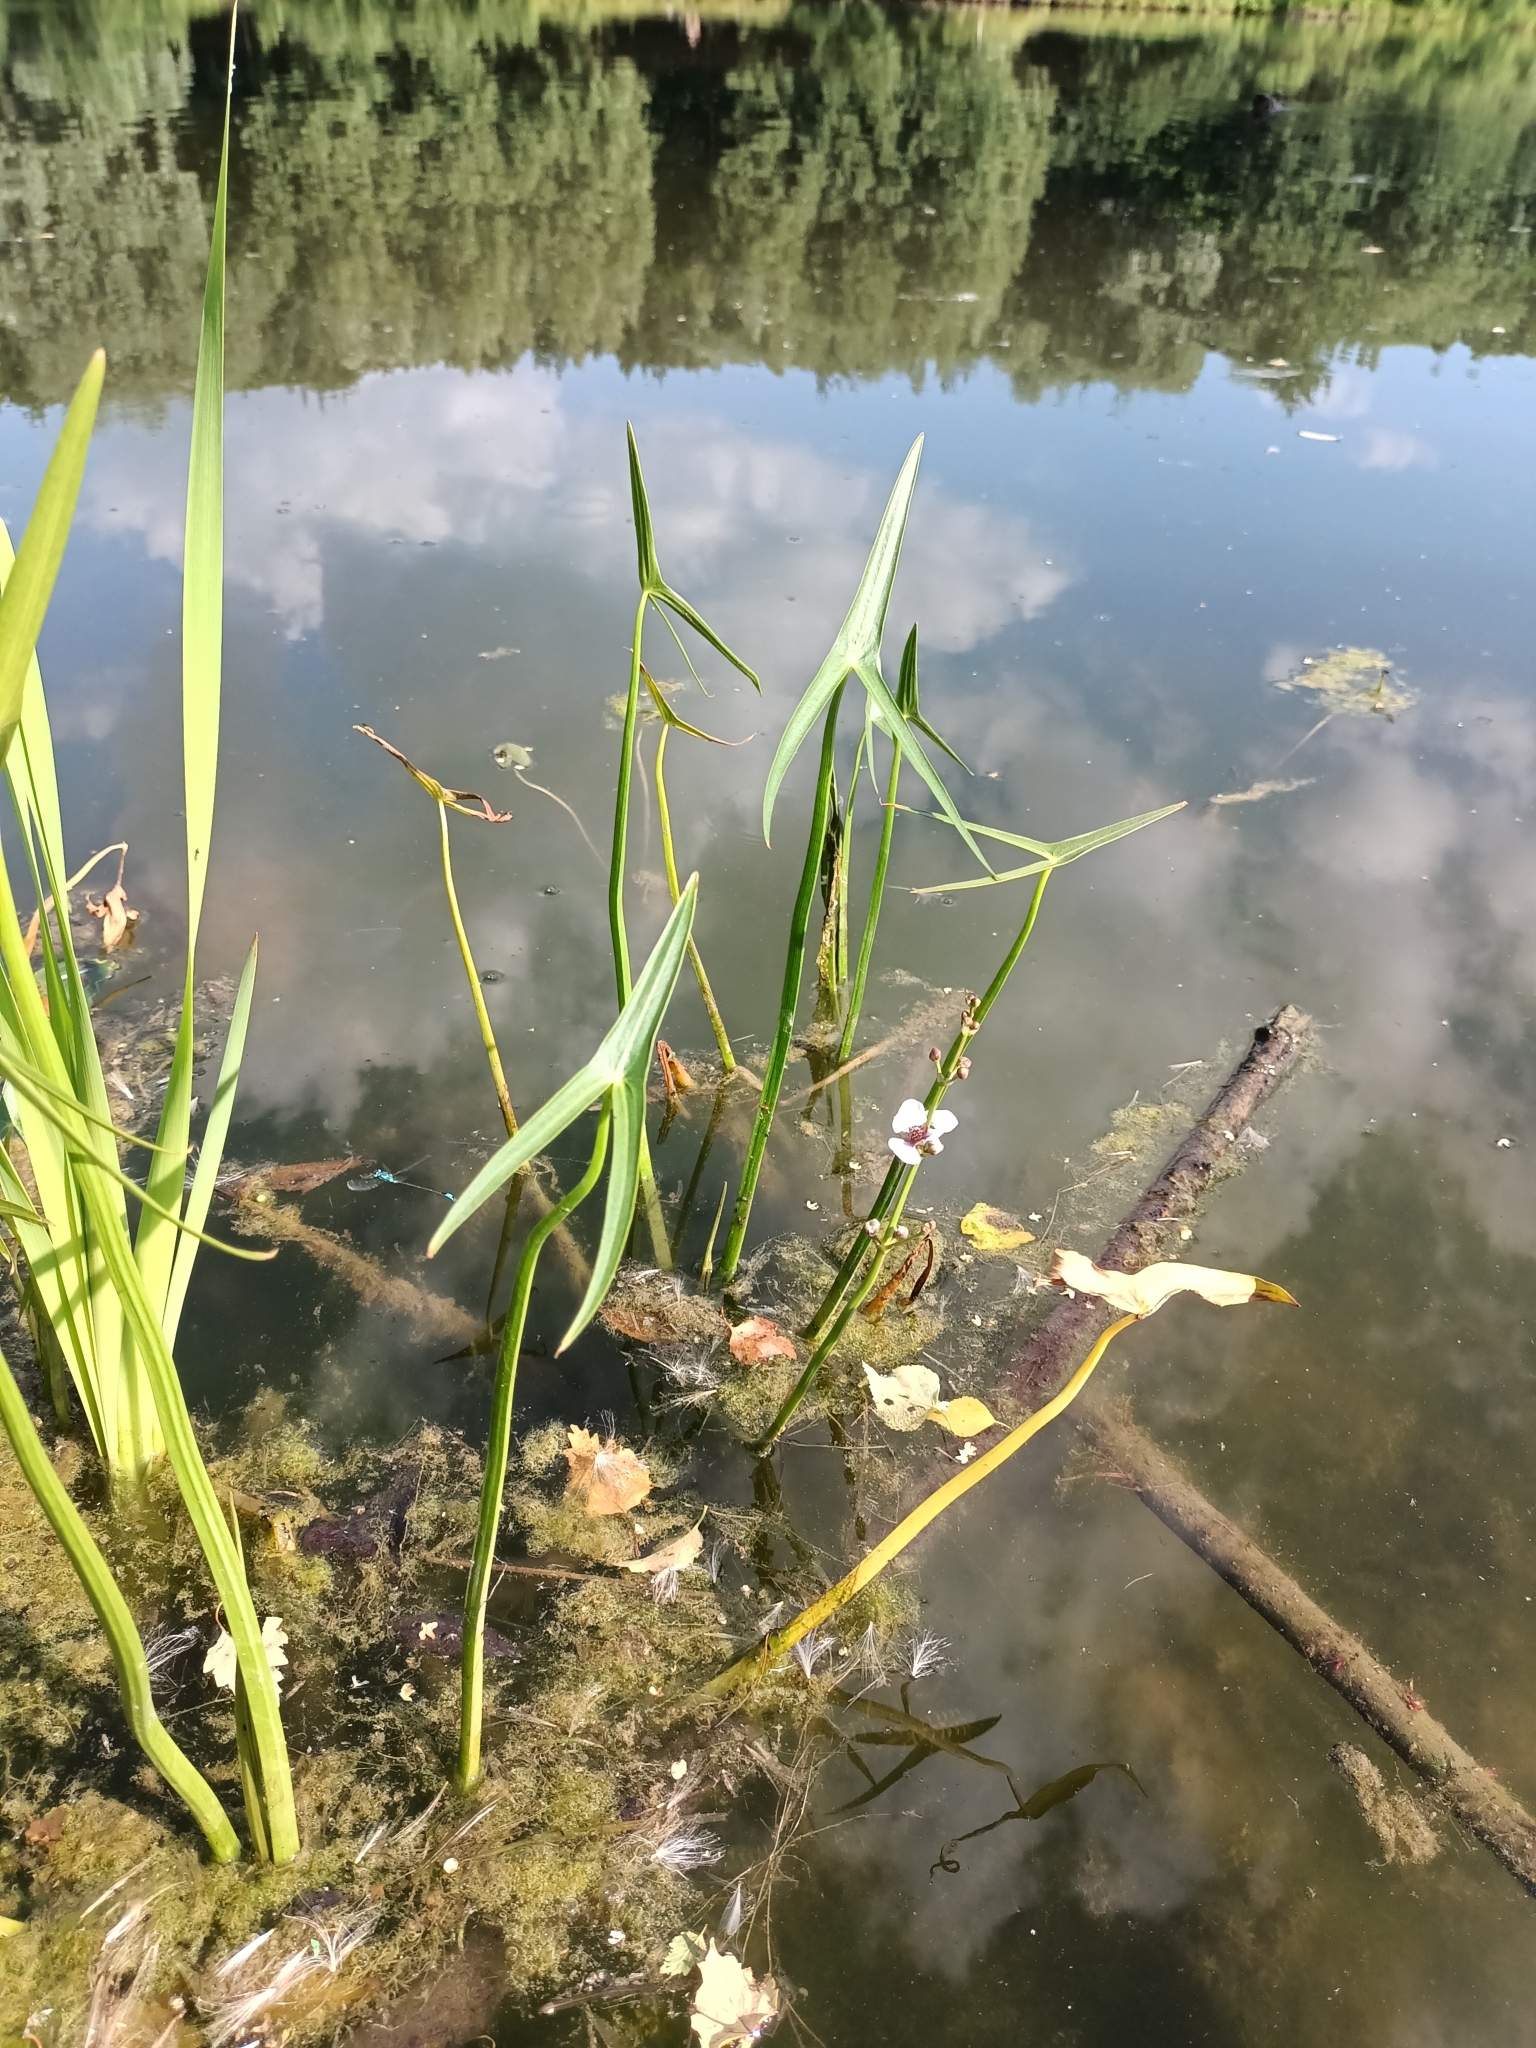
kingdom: Plantae
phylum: Tracheophyta
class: Liliopsida
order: Alismatales
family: Alismataceae
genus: Sagittaria
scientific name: Sagittaria sagittifolia
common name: Arrowhead
